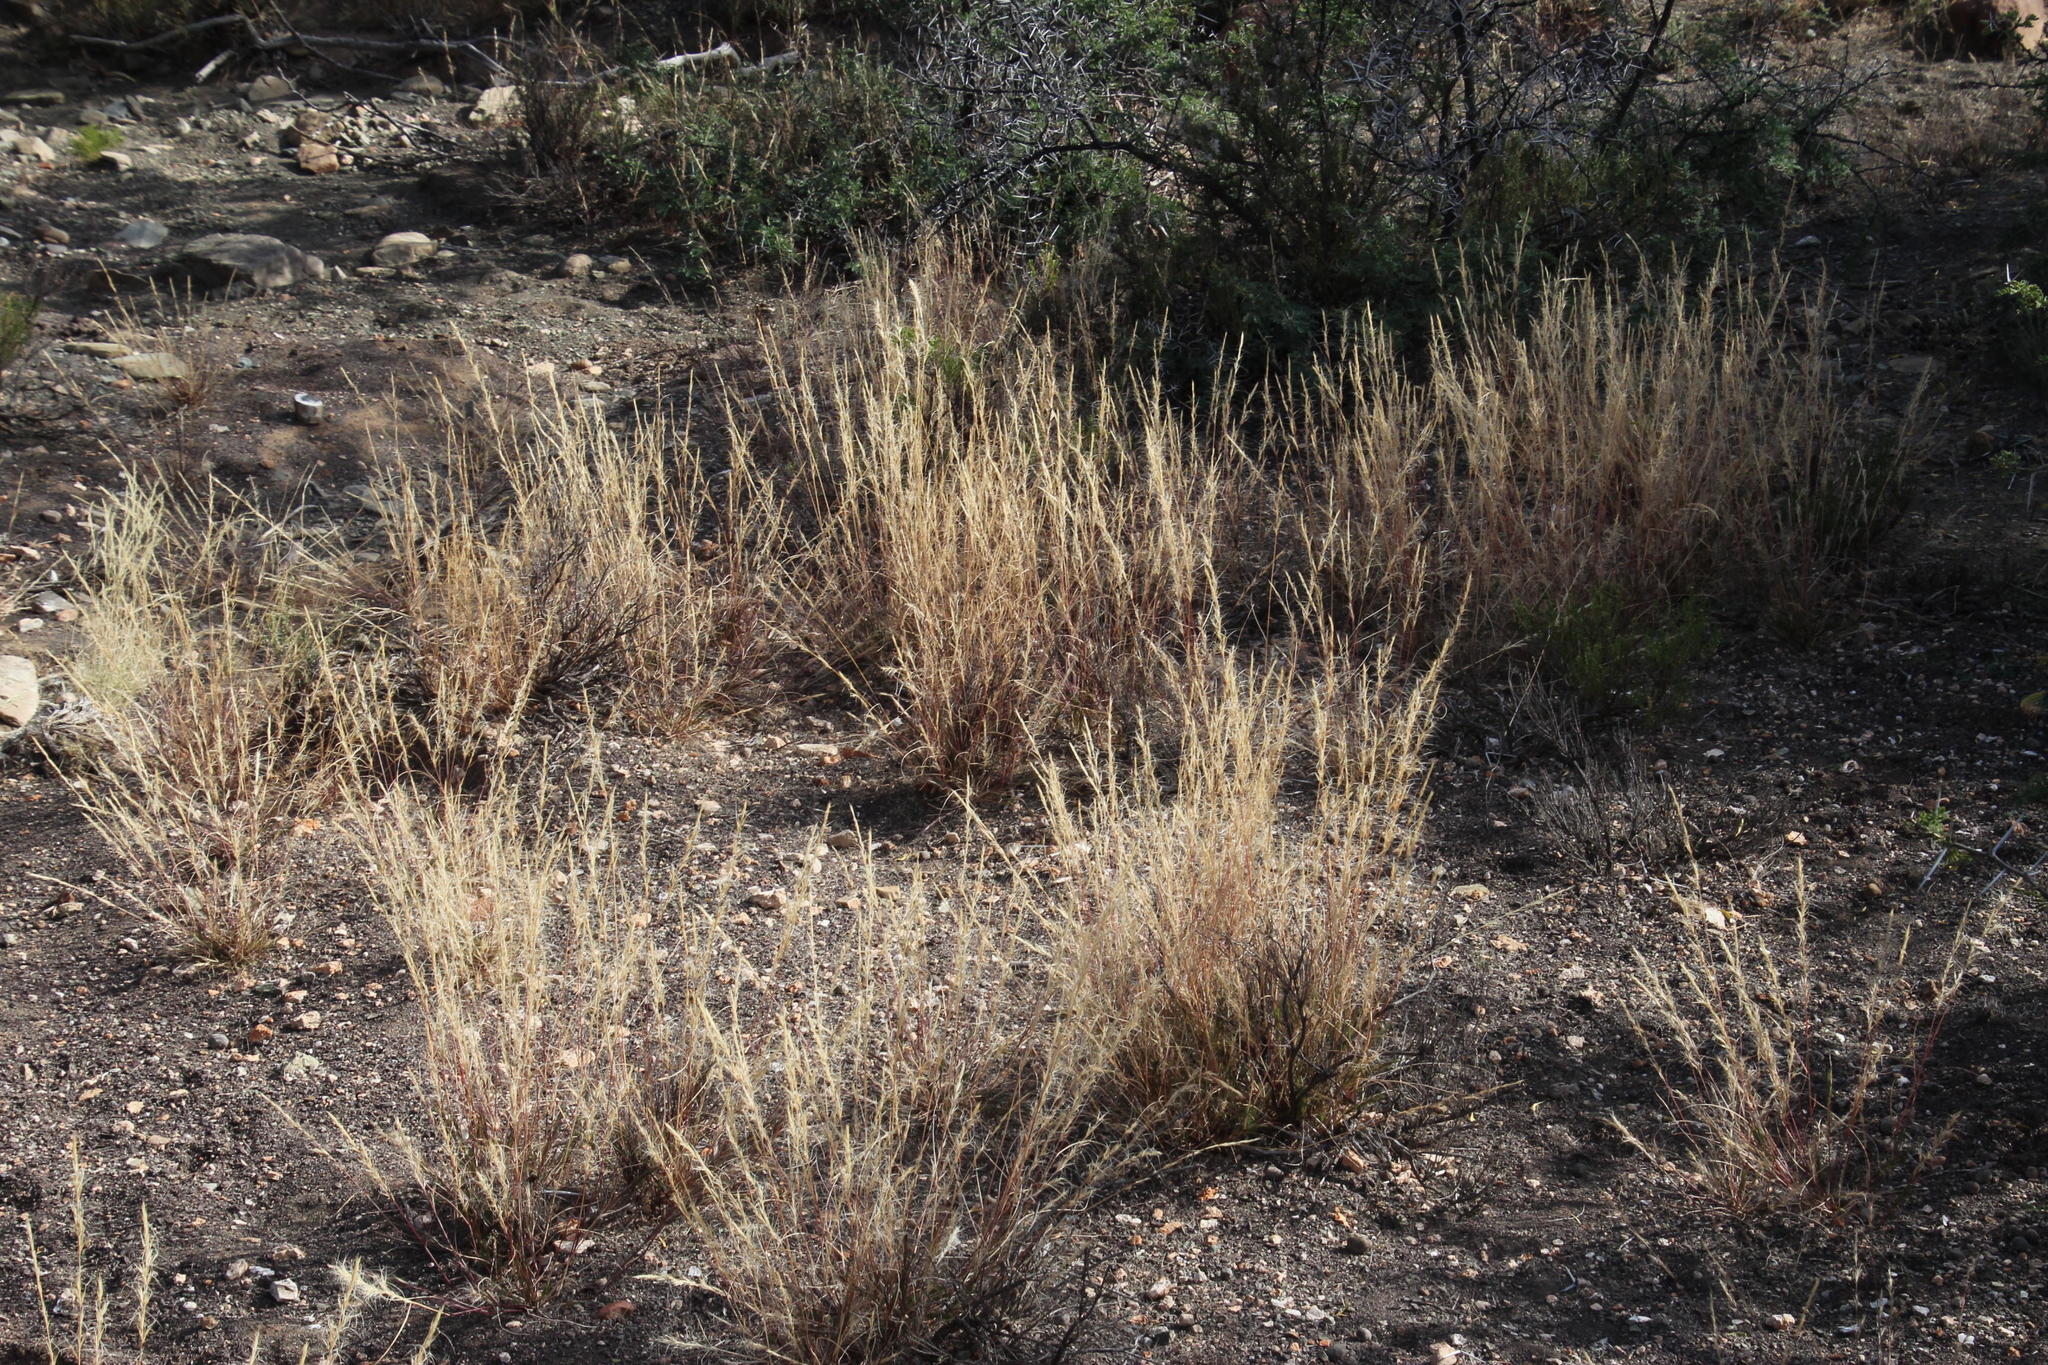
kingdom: Plantae
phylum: Tracheophyta
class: Liliopsida
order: Poales
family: Poaceae
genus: Aristida
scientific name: Aristida adscensionis
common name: Sixweeks threeawn
